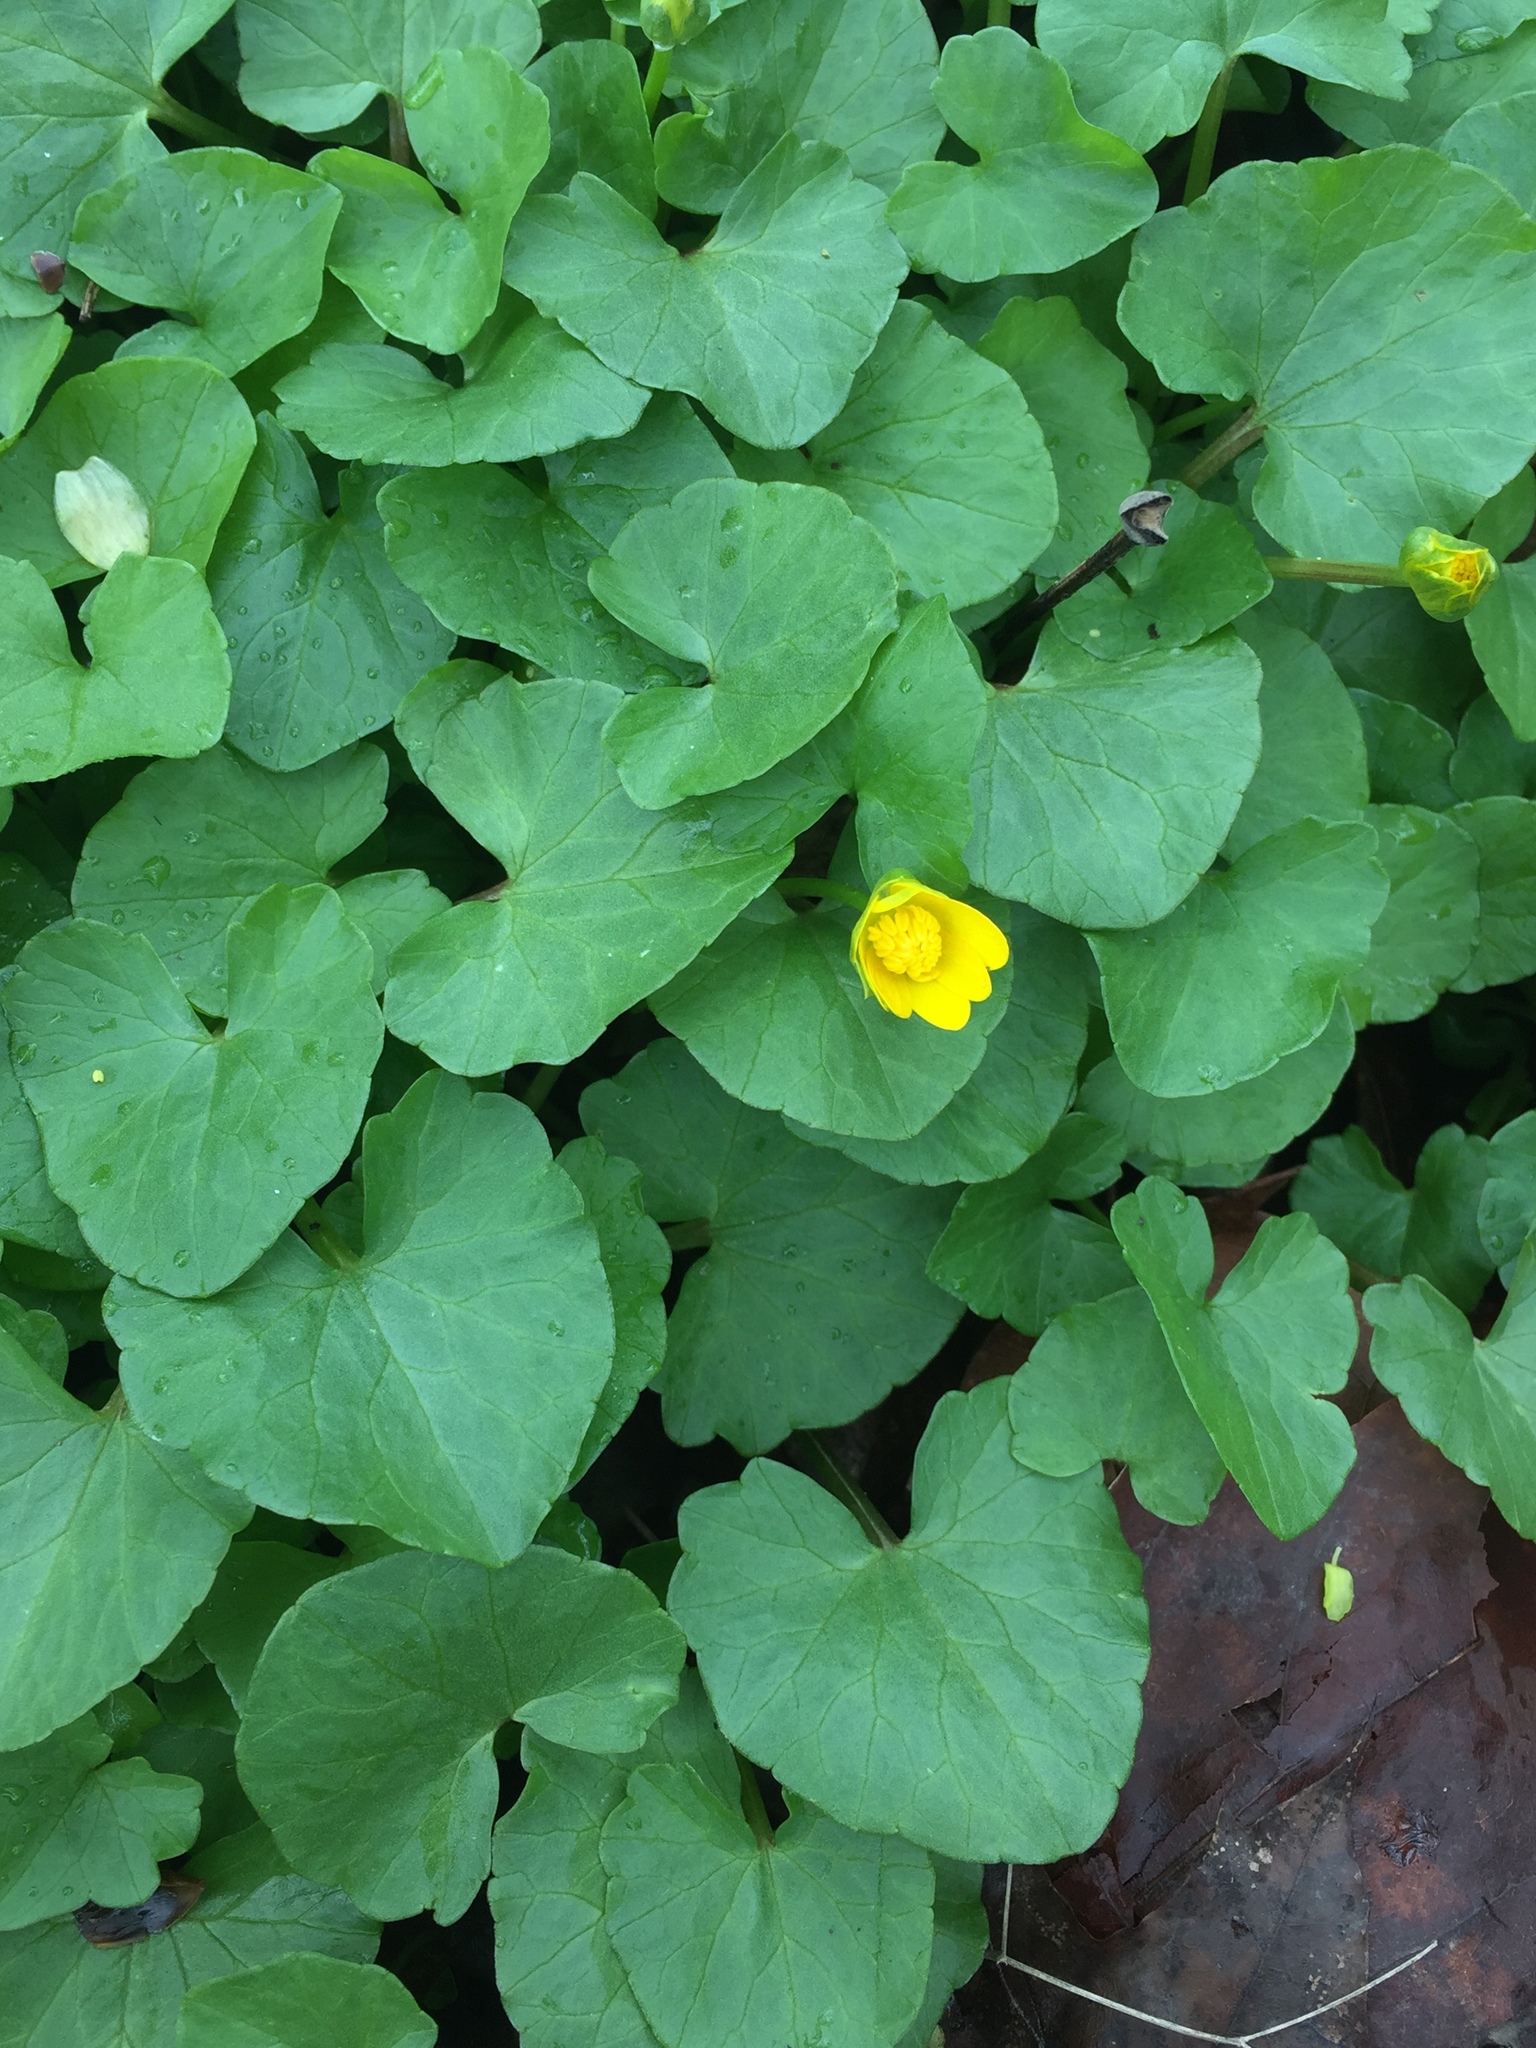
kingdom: Plantae
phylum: Tracheophyta
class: Magnoliopsida
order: Ranunculales
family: Ranunculaceae
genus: Ficaria
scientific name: Ficaria verna
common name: Lesser celandine
